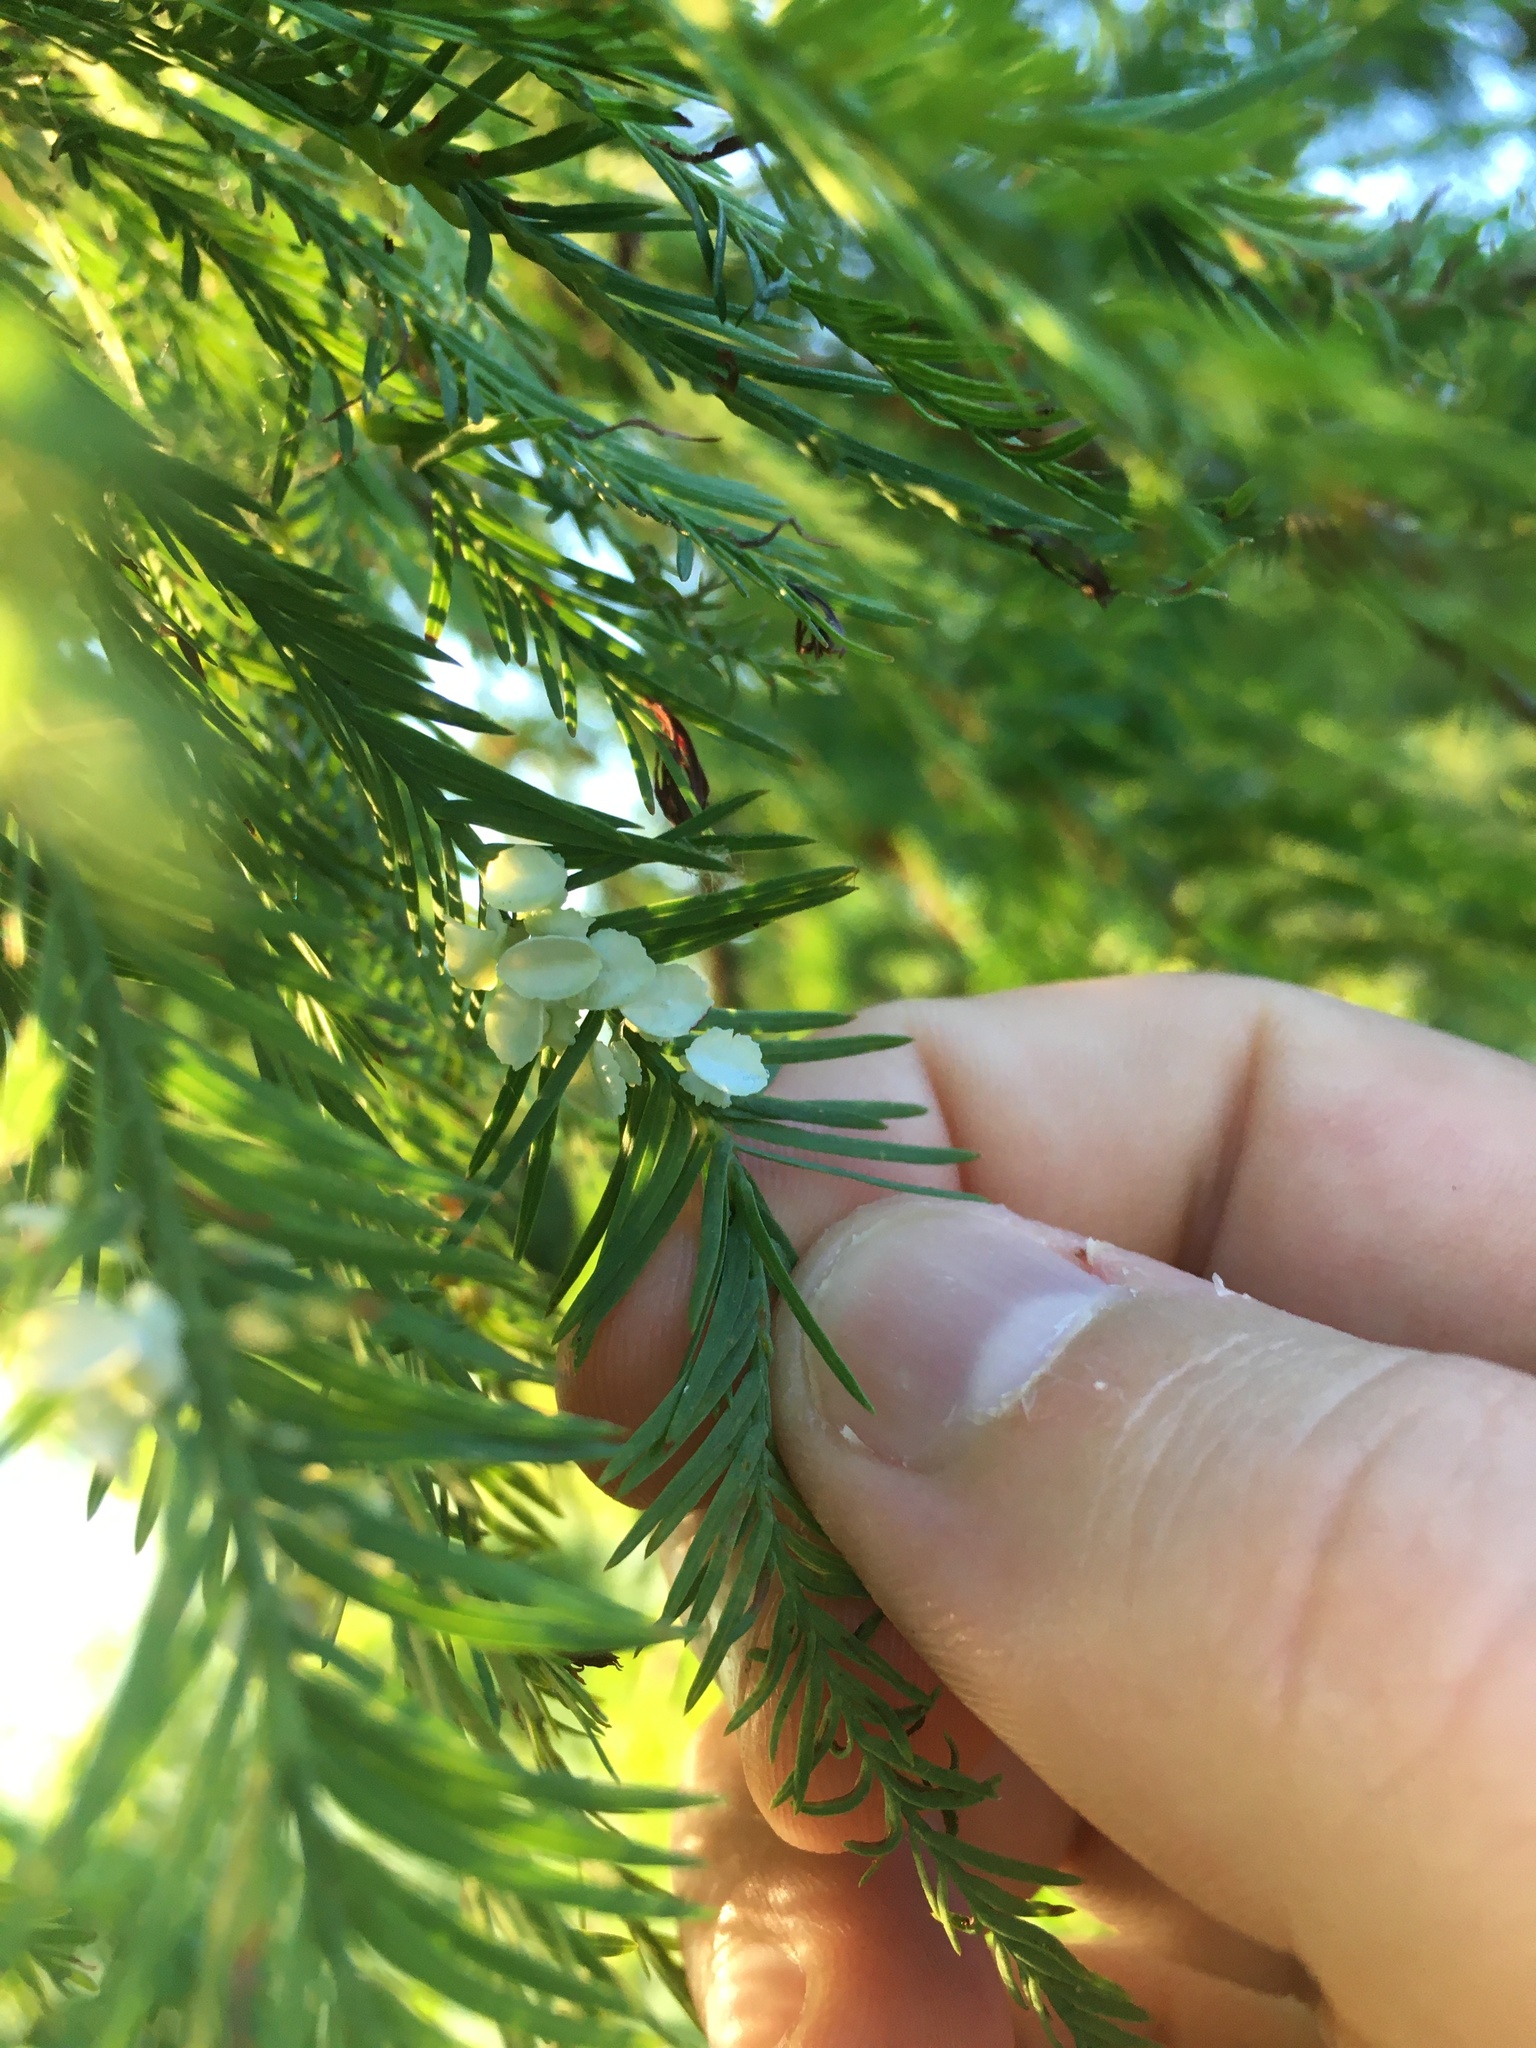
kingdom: Animalia
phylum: Arthropoda
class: Insecta
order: Diptera
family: Cecidomyiidae
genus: Taxodiomyia
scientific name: Taxodiomyia cupressi
